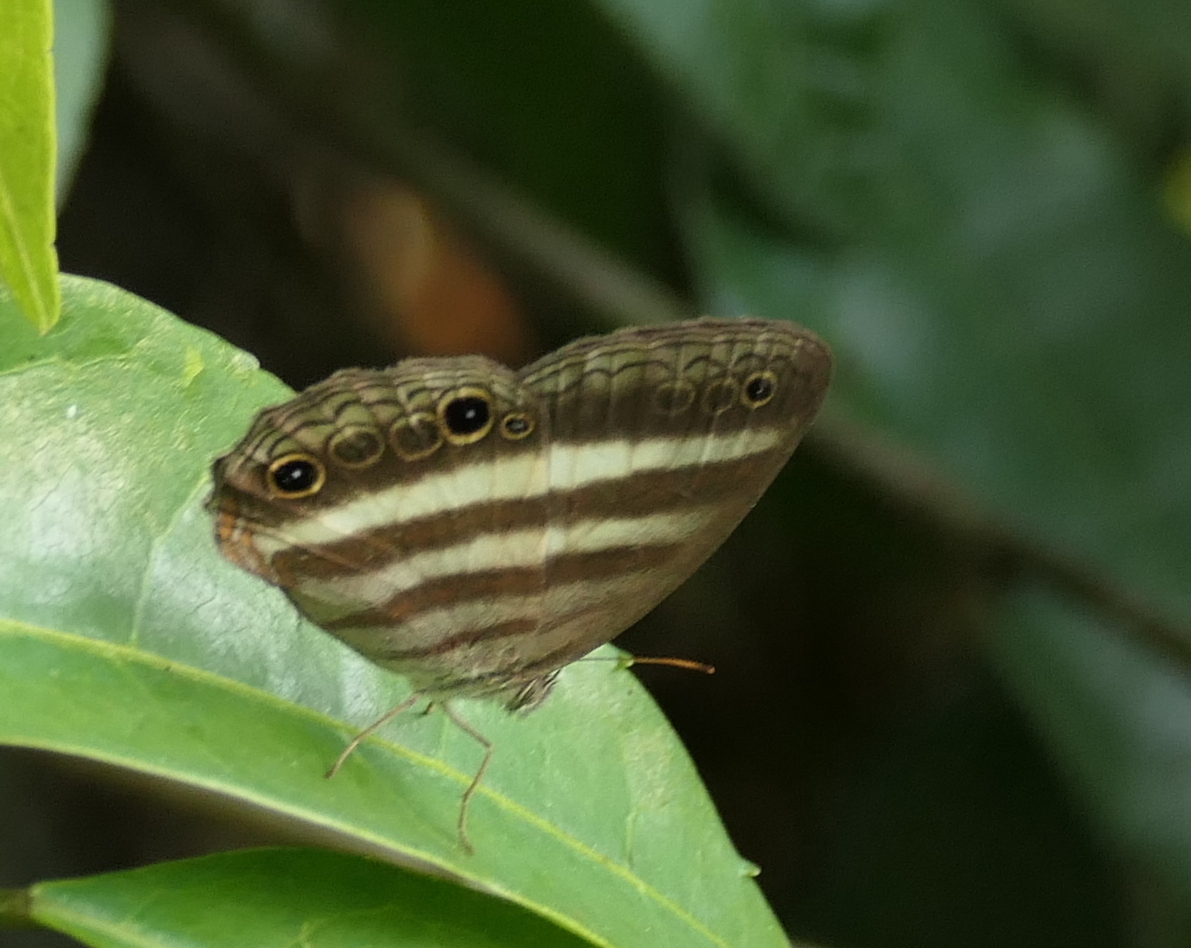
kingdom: Animalia
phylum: Arthropoda
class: Insecta
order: Lepidoptera
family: Nymphalidae
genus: Pareuptychia
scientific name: Pareuptychia hesione
